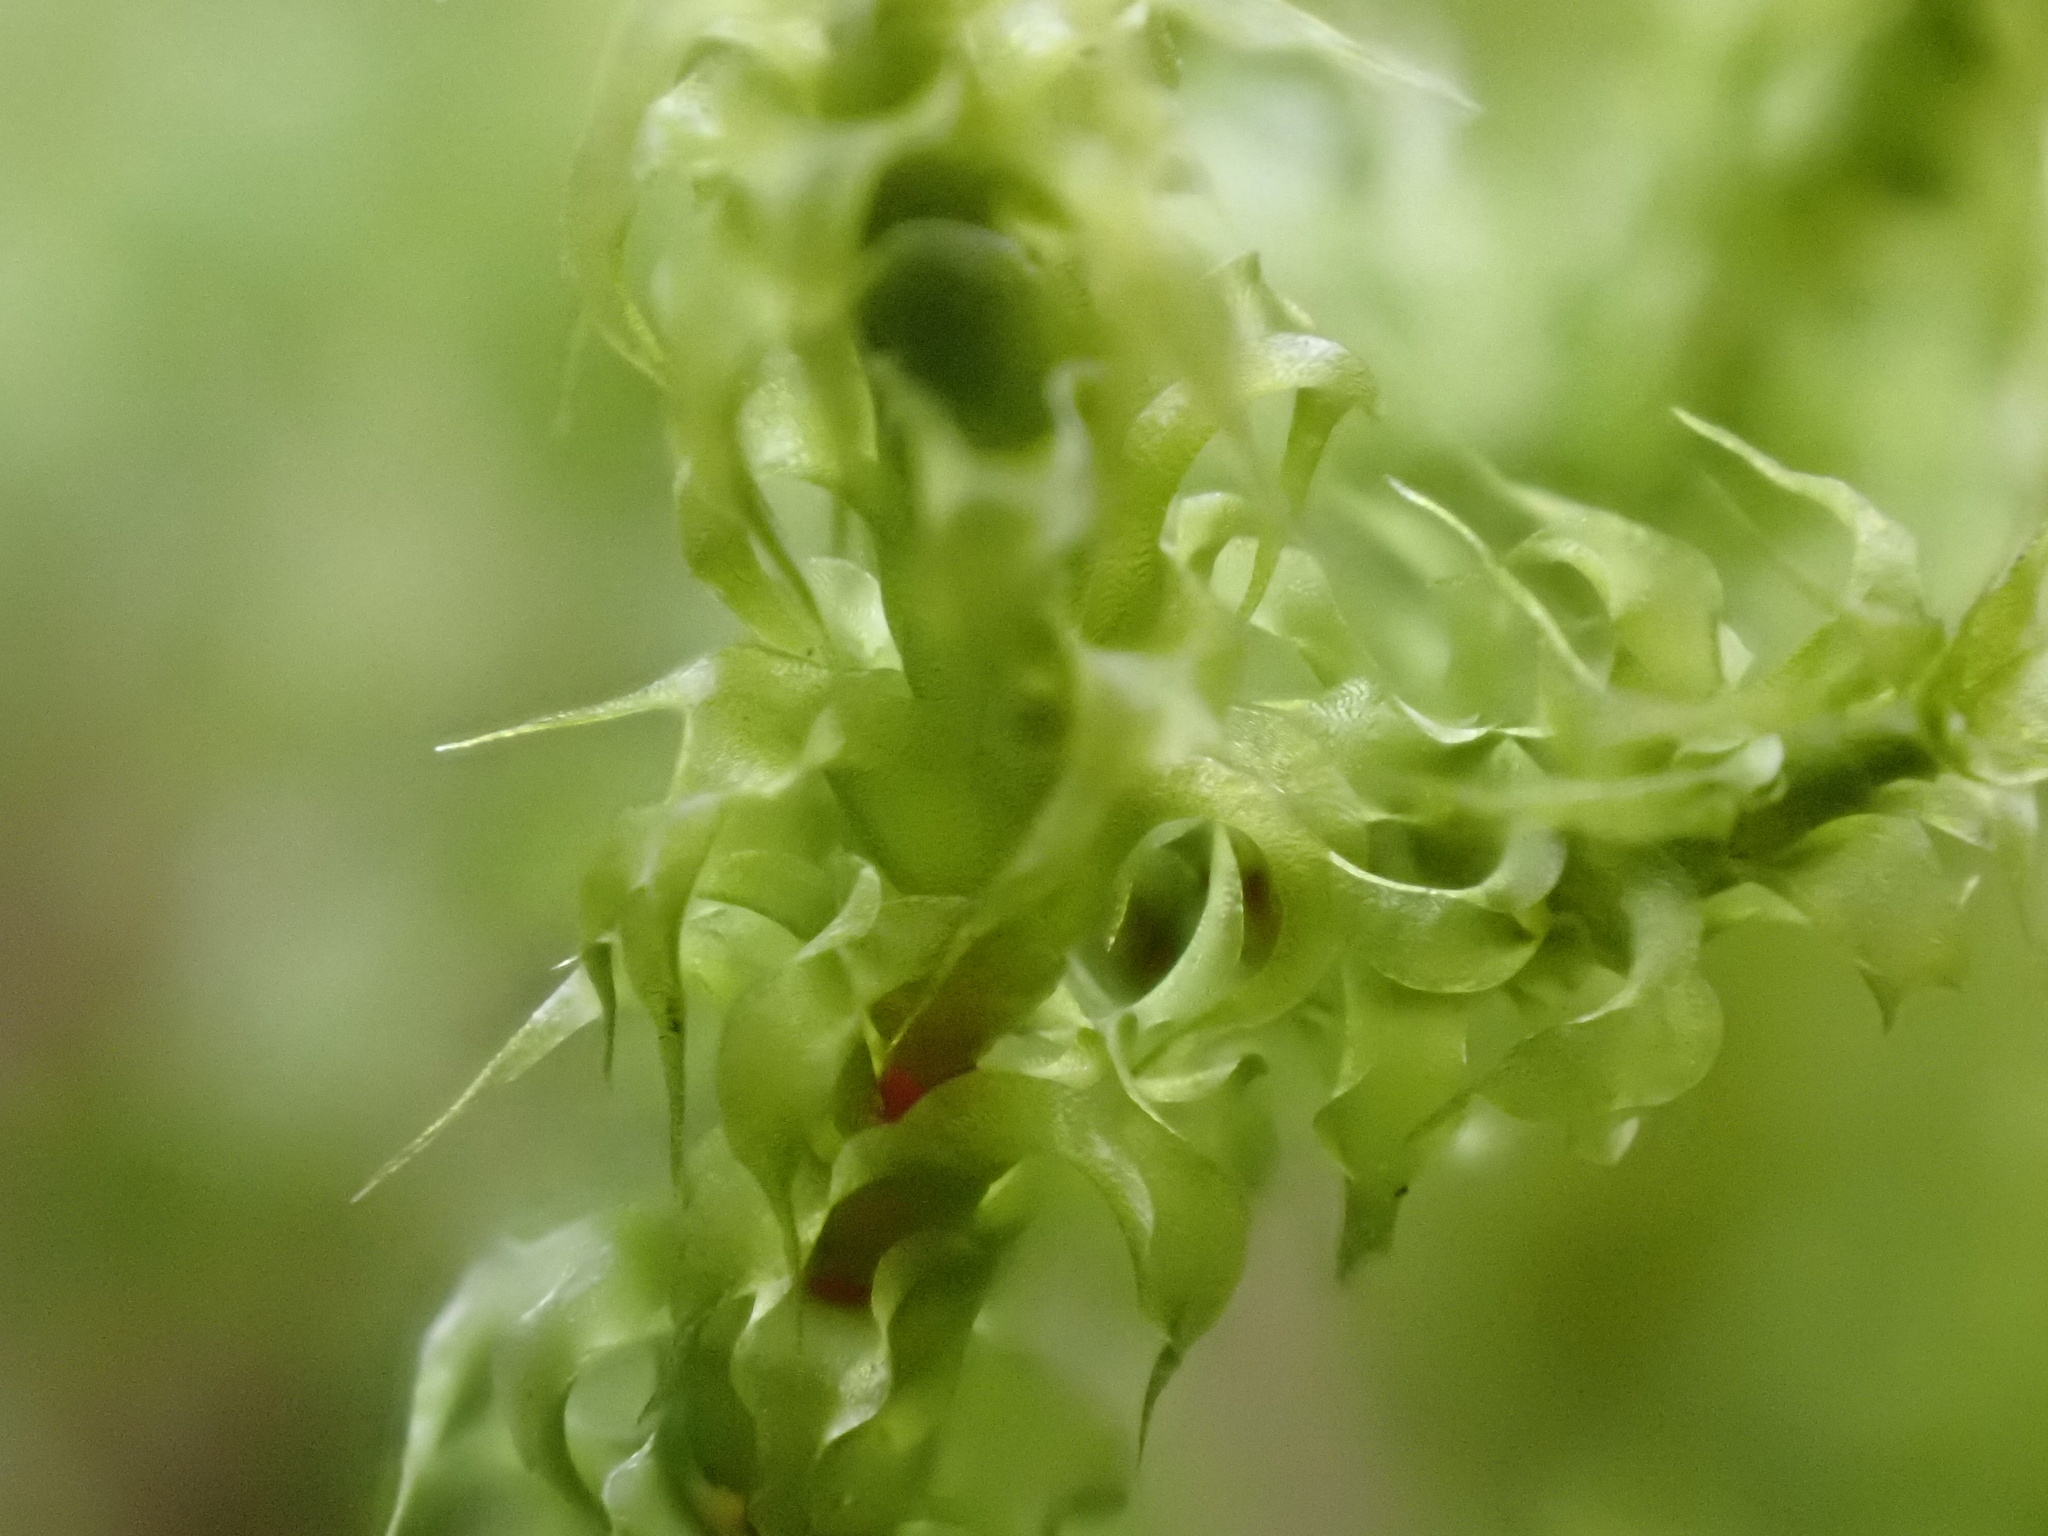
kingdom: Plantae
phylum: Bryophyta
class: Bryopsida
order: Hypnales
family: Hylocomiaceae
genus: Rhytidiadelphus
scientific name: Rhytidiadelphus squarrosus
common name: Springy turf-moss
